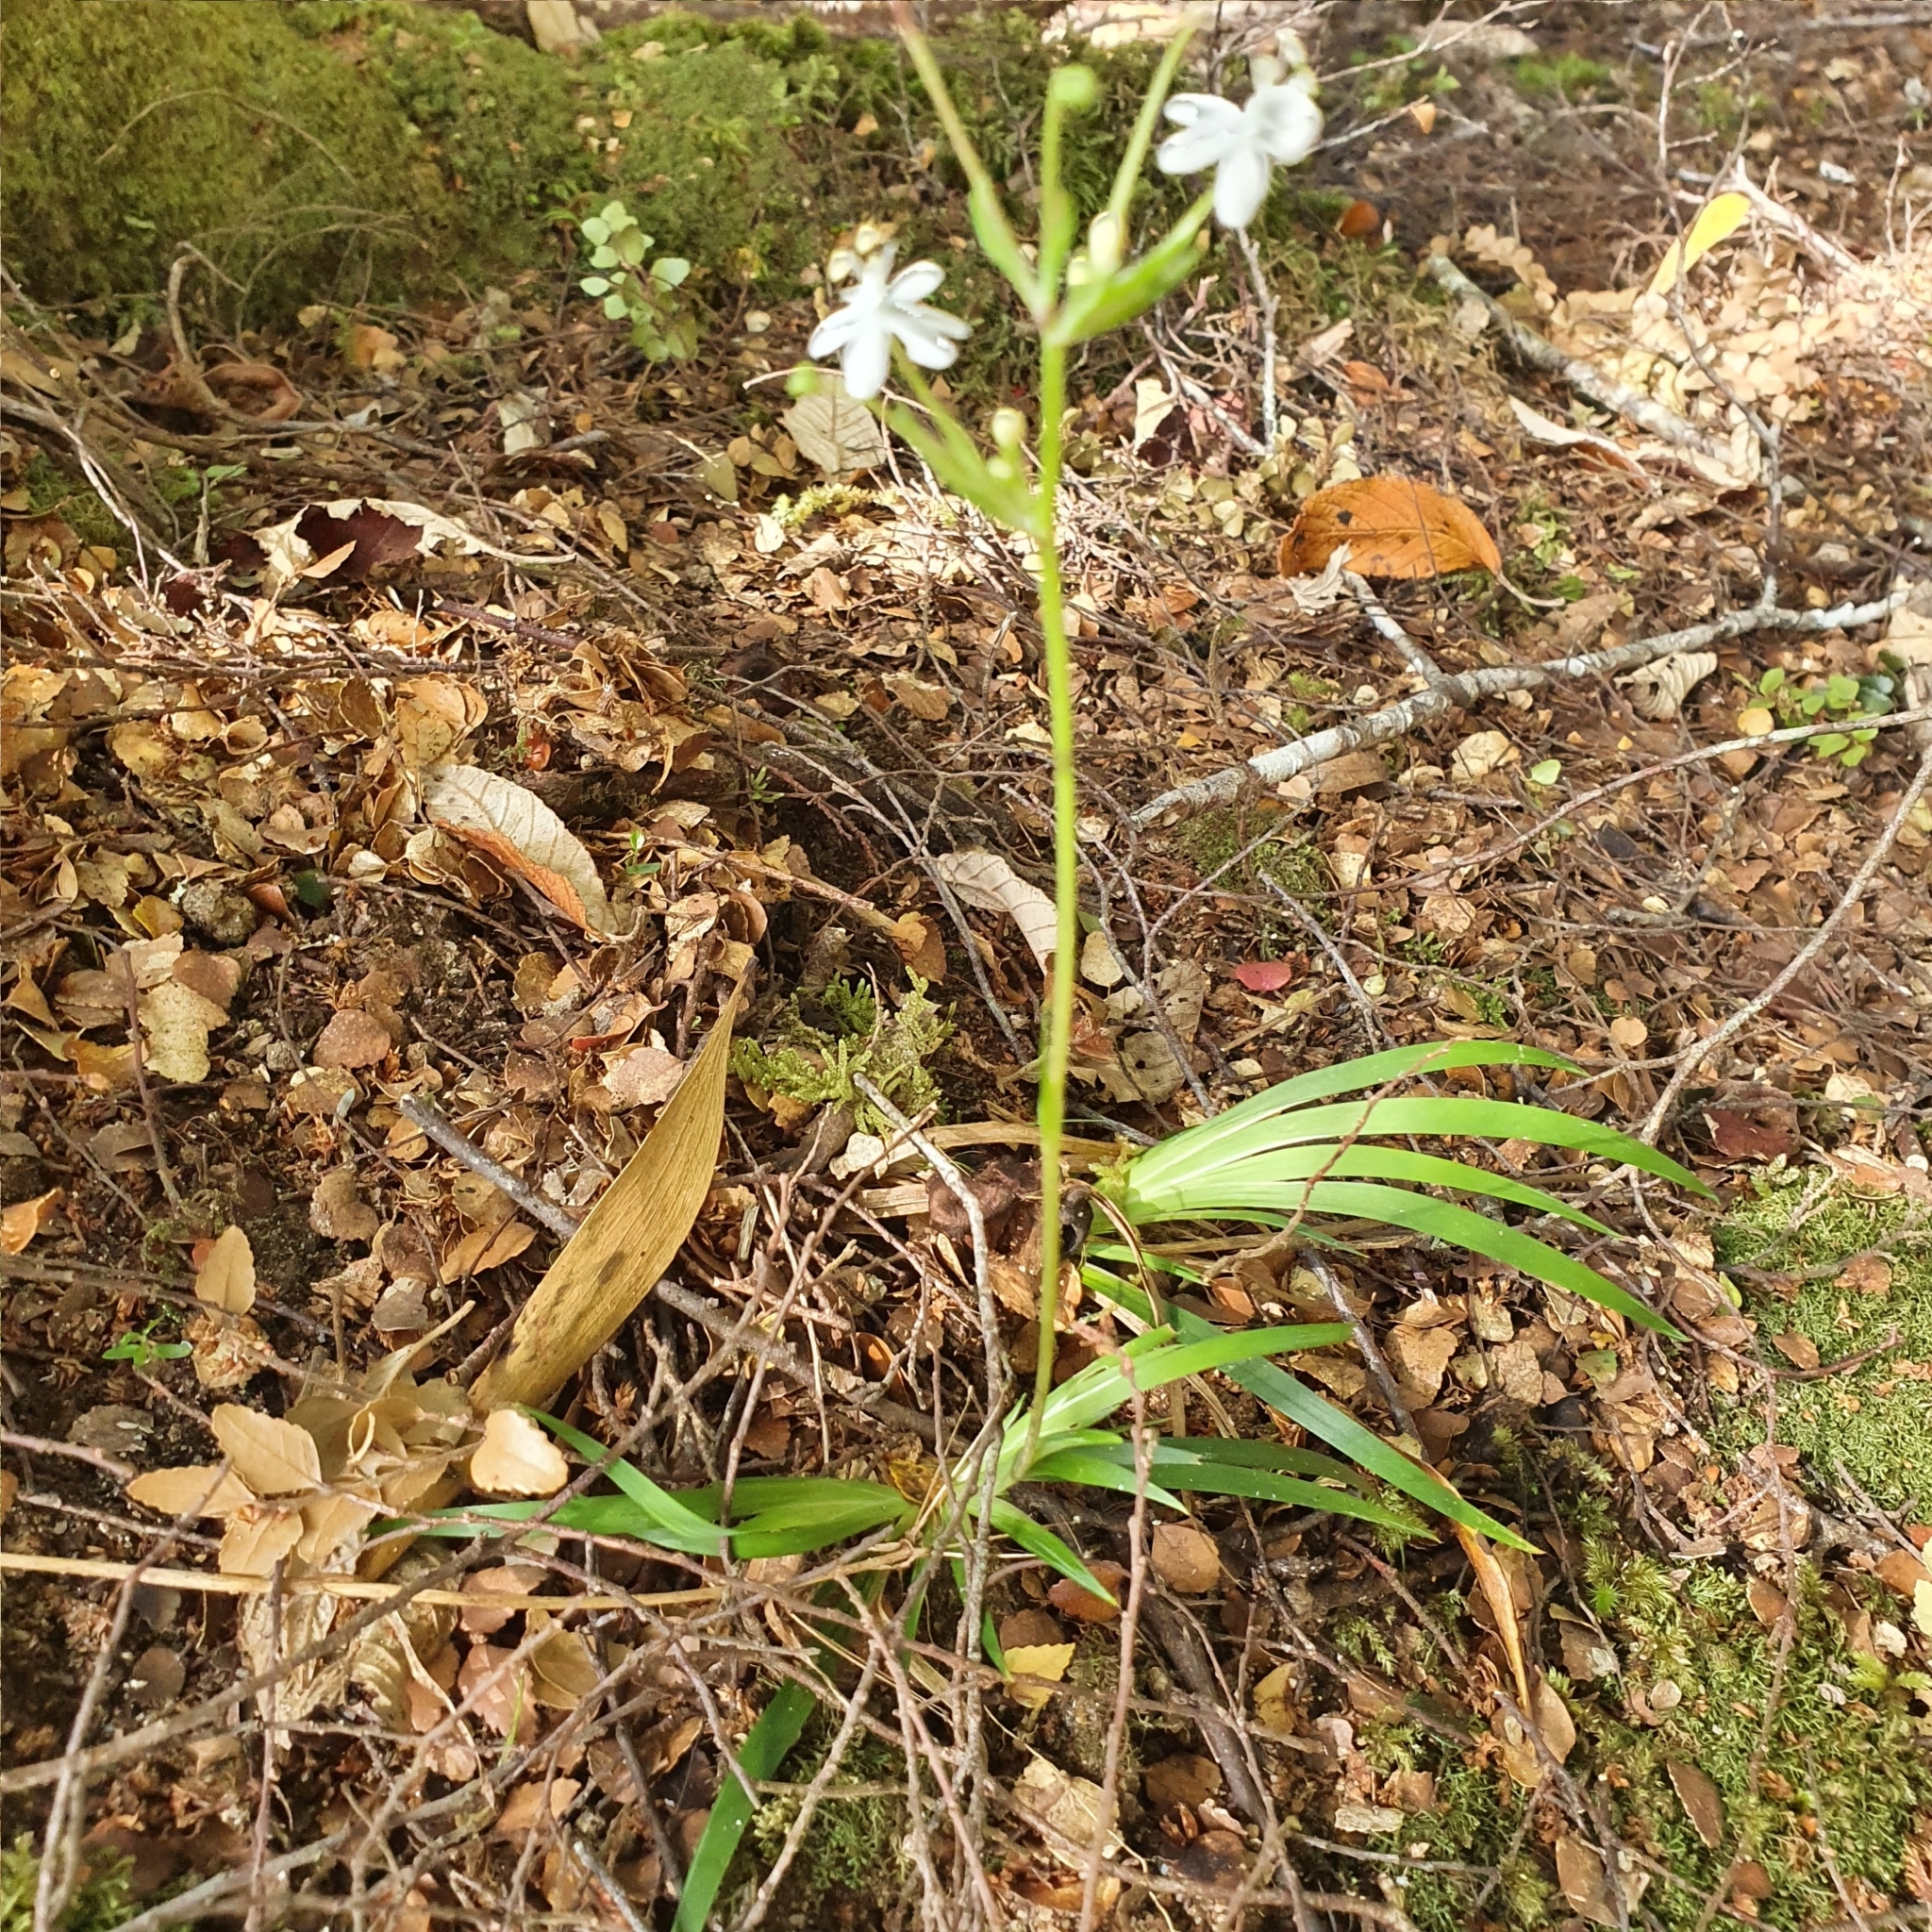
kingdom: Plantae
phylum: Tracheophyta
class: Liliopsida
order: Asparagales
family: Iridaceae
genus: Libertia
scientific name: Libertia pulchella
